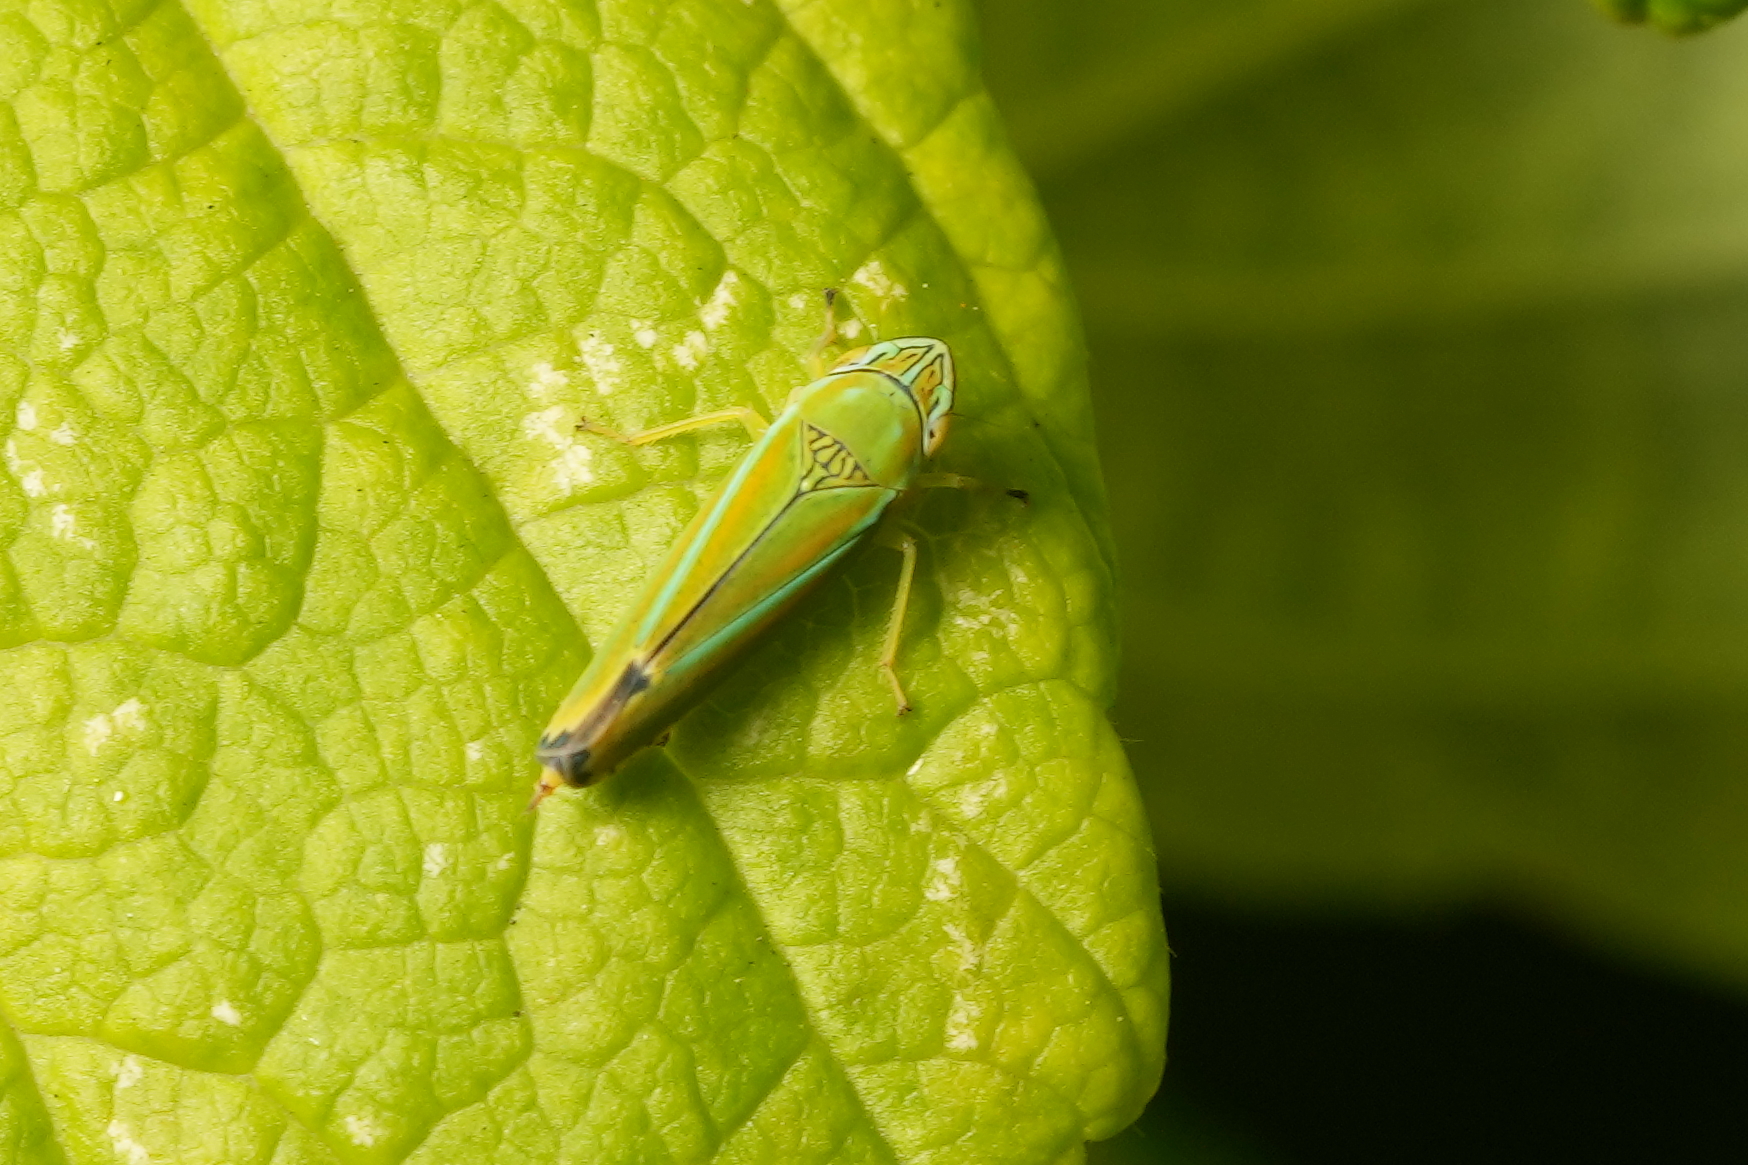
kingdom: Animalia
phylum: Arthropoda
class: Insecta
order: Hemiptera
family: Cicadellidae
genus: Graphocephala
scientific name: Graphocephala versuta
